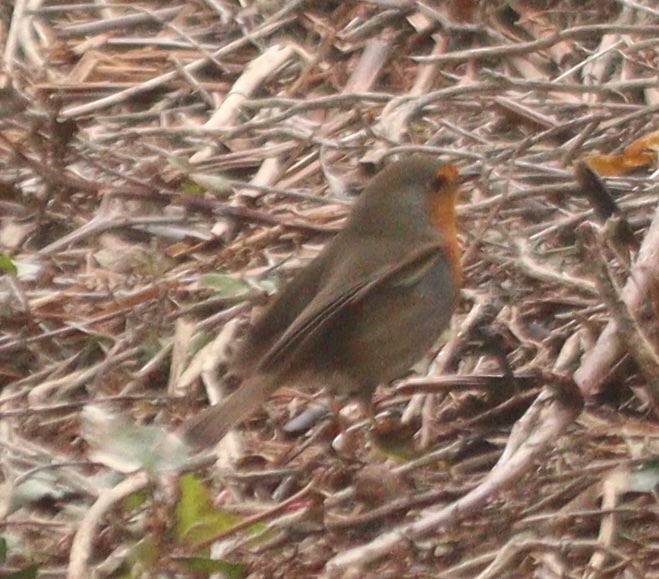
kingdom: Animalia
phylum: Chordata
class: Aves
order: Passeriformes
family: Muscicapidae
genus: Erithacus
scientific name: Erithacus rubecula
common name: European robin
